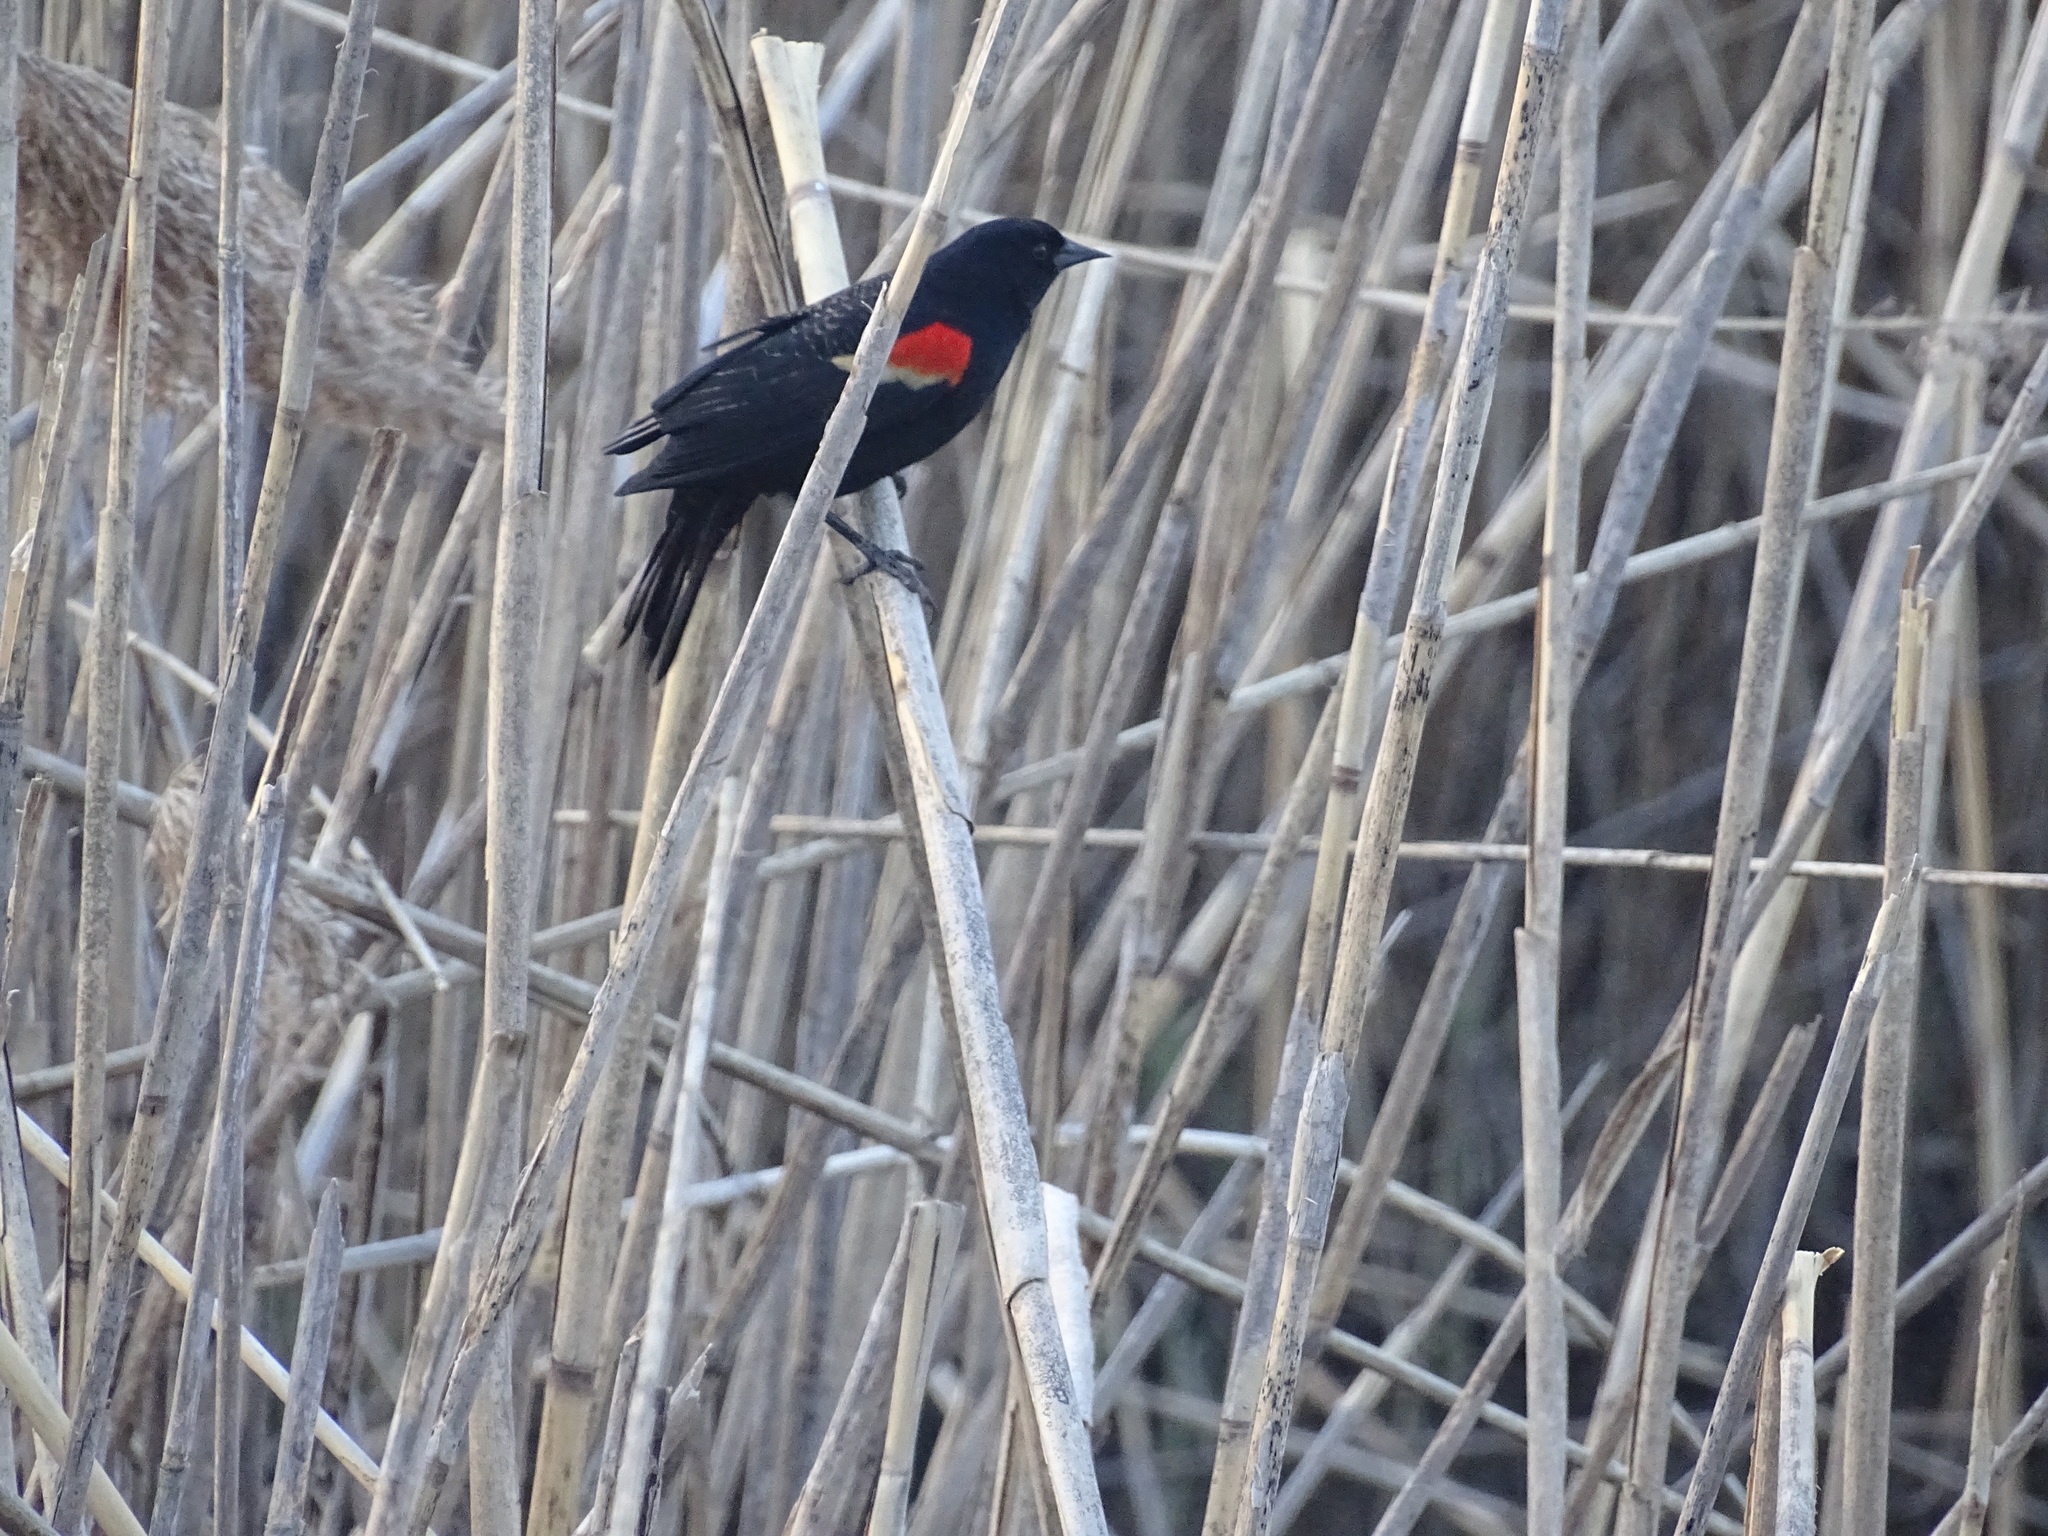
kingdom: Animalia
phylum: Chordata
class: Aves
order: Passeriformes
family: Icteridae
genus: Agelaius
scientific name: Agelaius phoeniceus
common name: Red-winged blackbird
